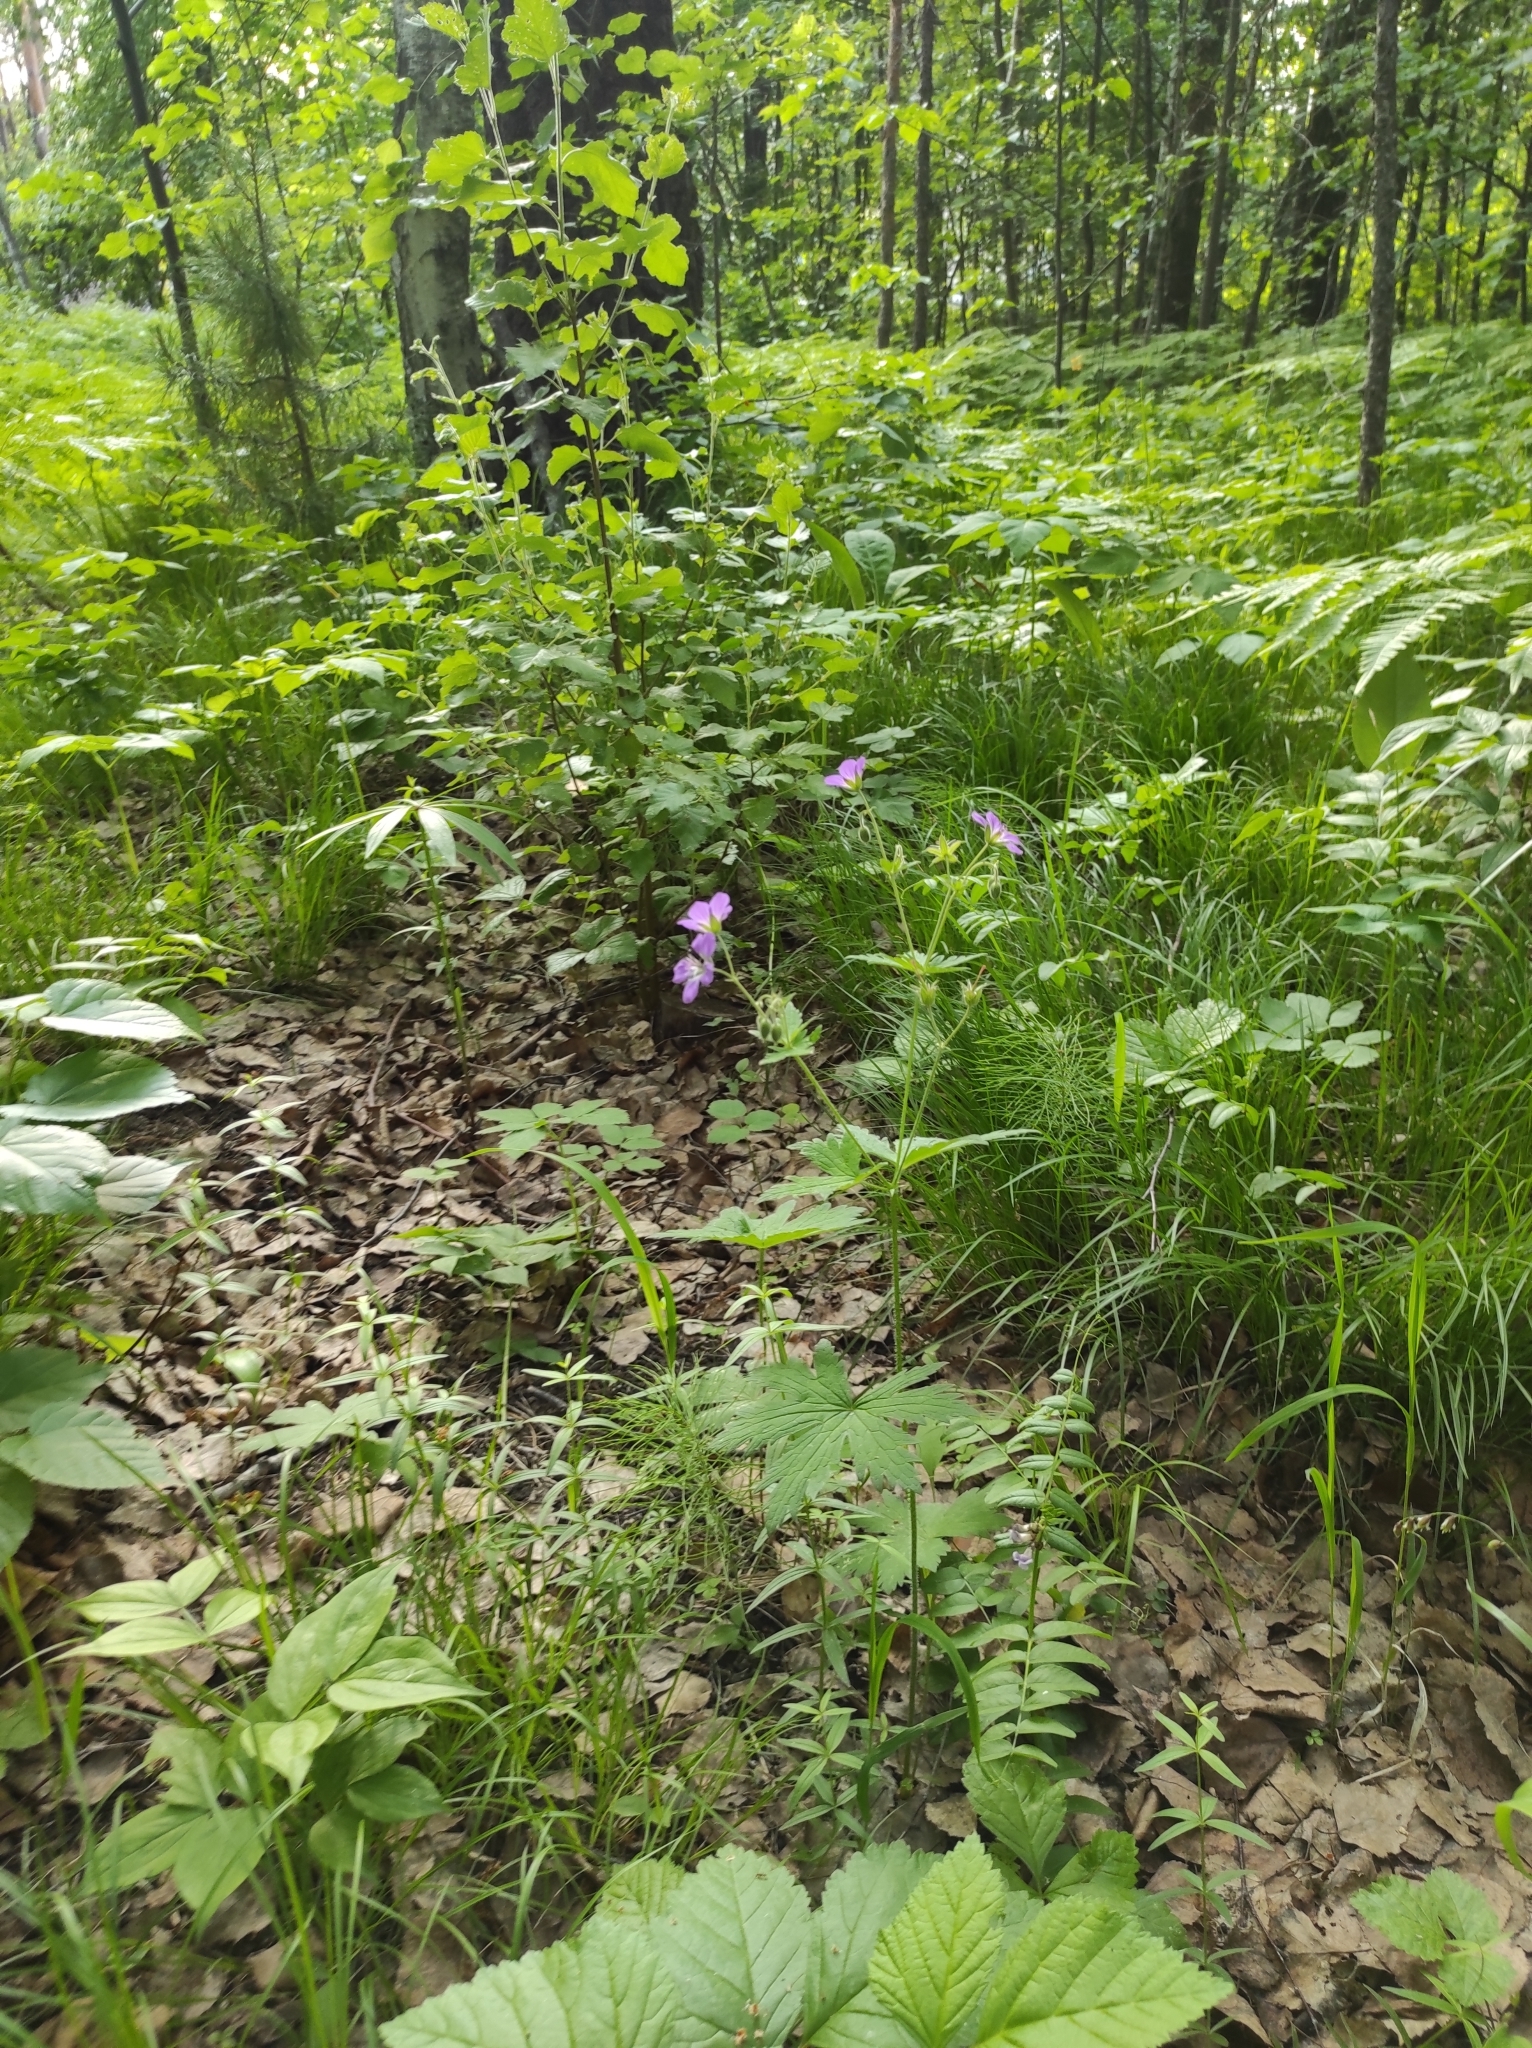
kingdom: Plantae
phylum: Tracheophyta
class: Magnoliopsida
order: Geraniales
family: Geraniaceae
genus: Geranium
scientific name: Geranium sylvaticum
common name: Wood crane's-bill
